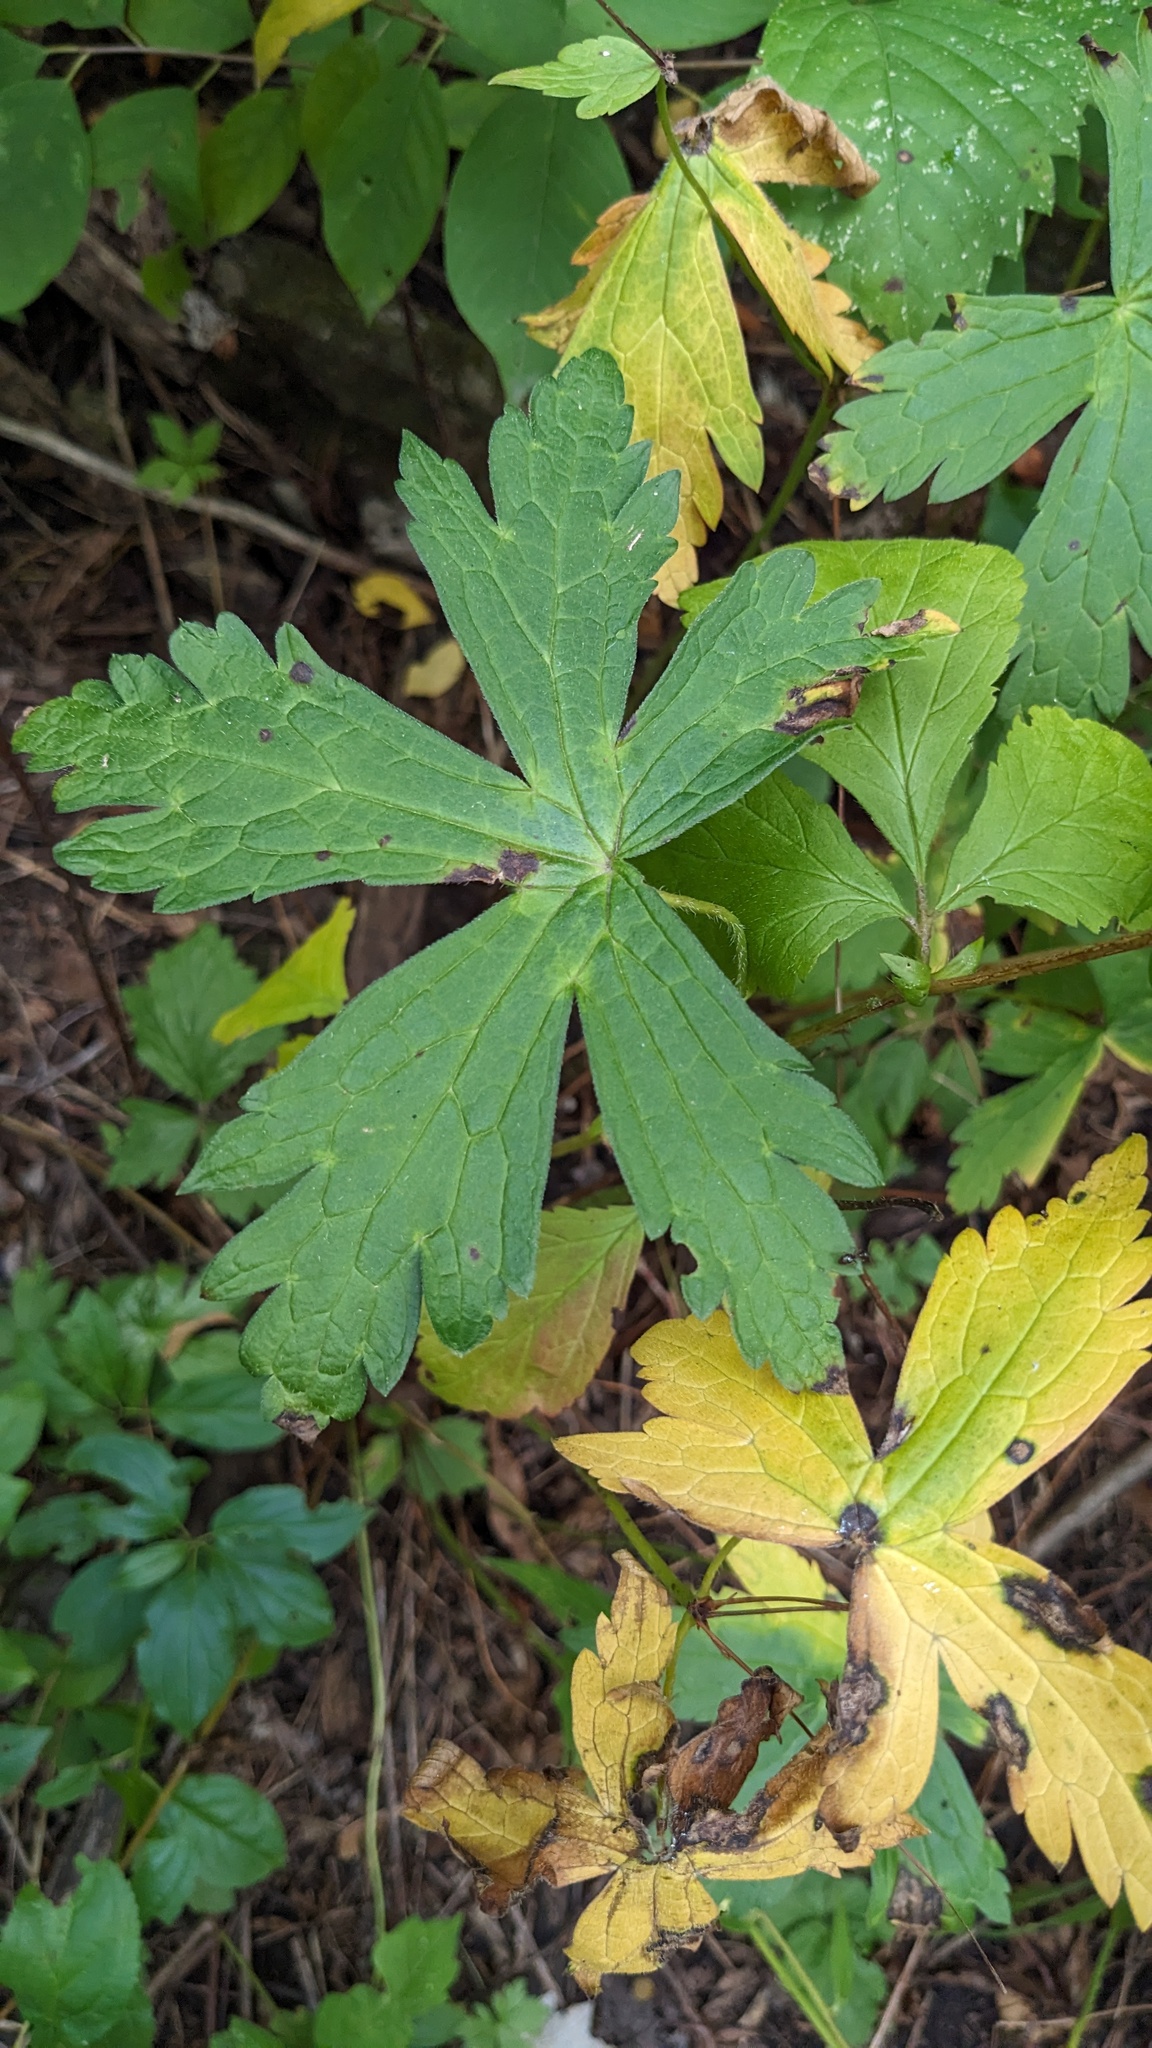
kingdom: Plantae
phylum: Tracheophyta
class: Magnoliopsida
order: Geraniales
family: Geraniaceae
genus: Geranium
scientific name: Geranium maculatum
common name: Spotted geranium
